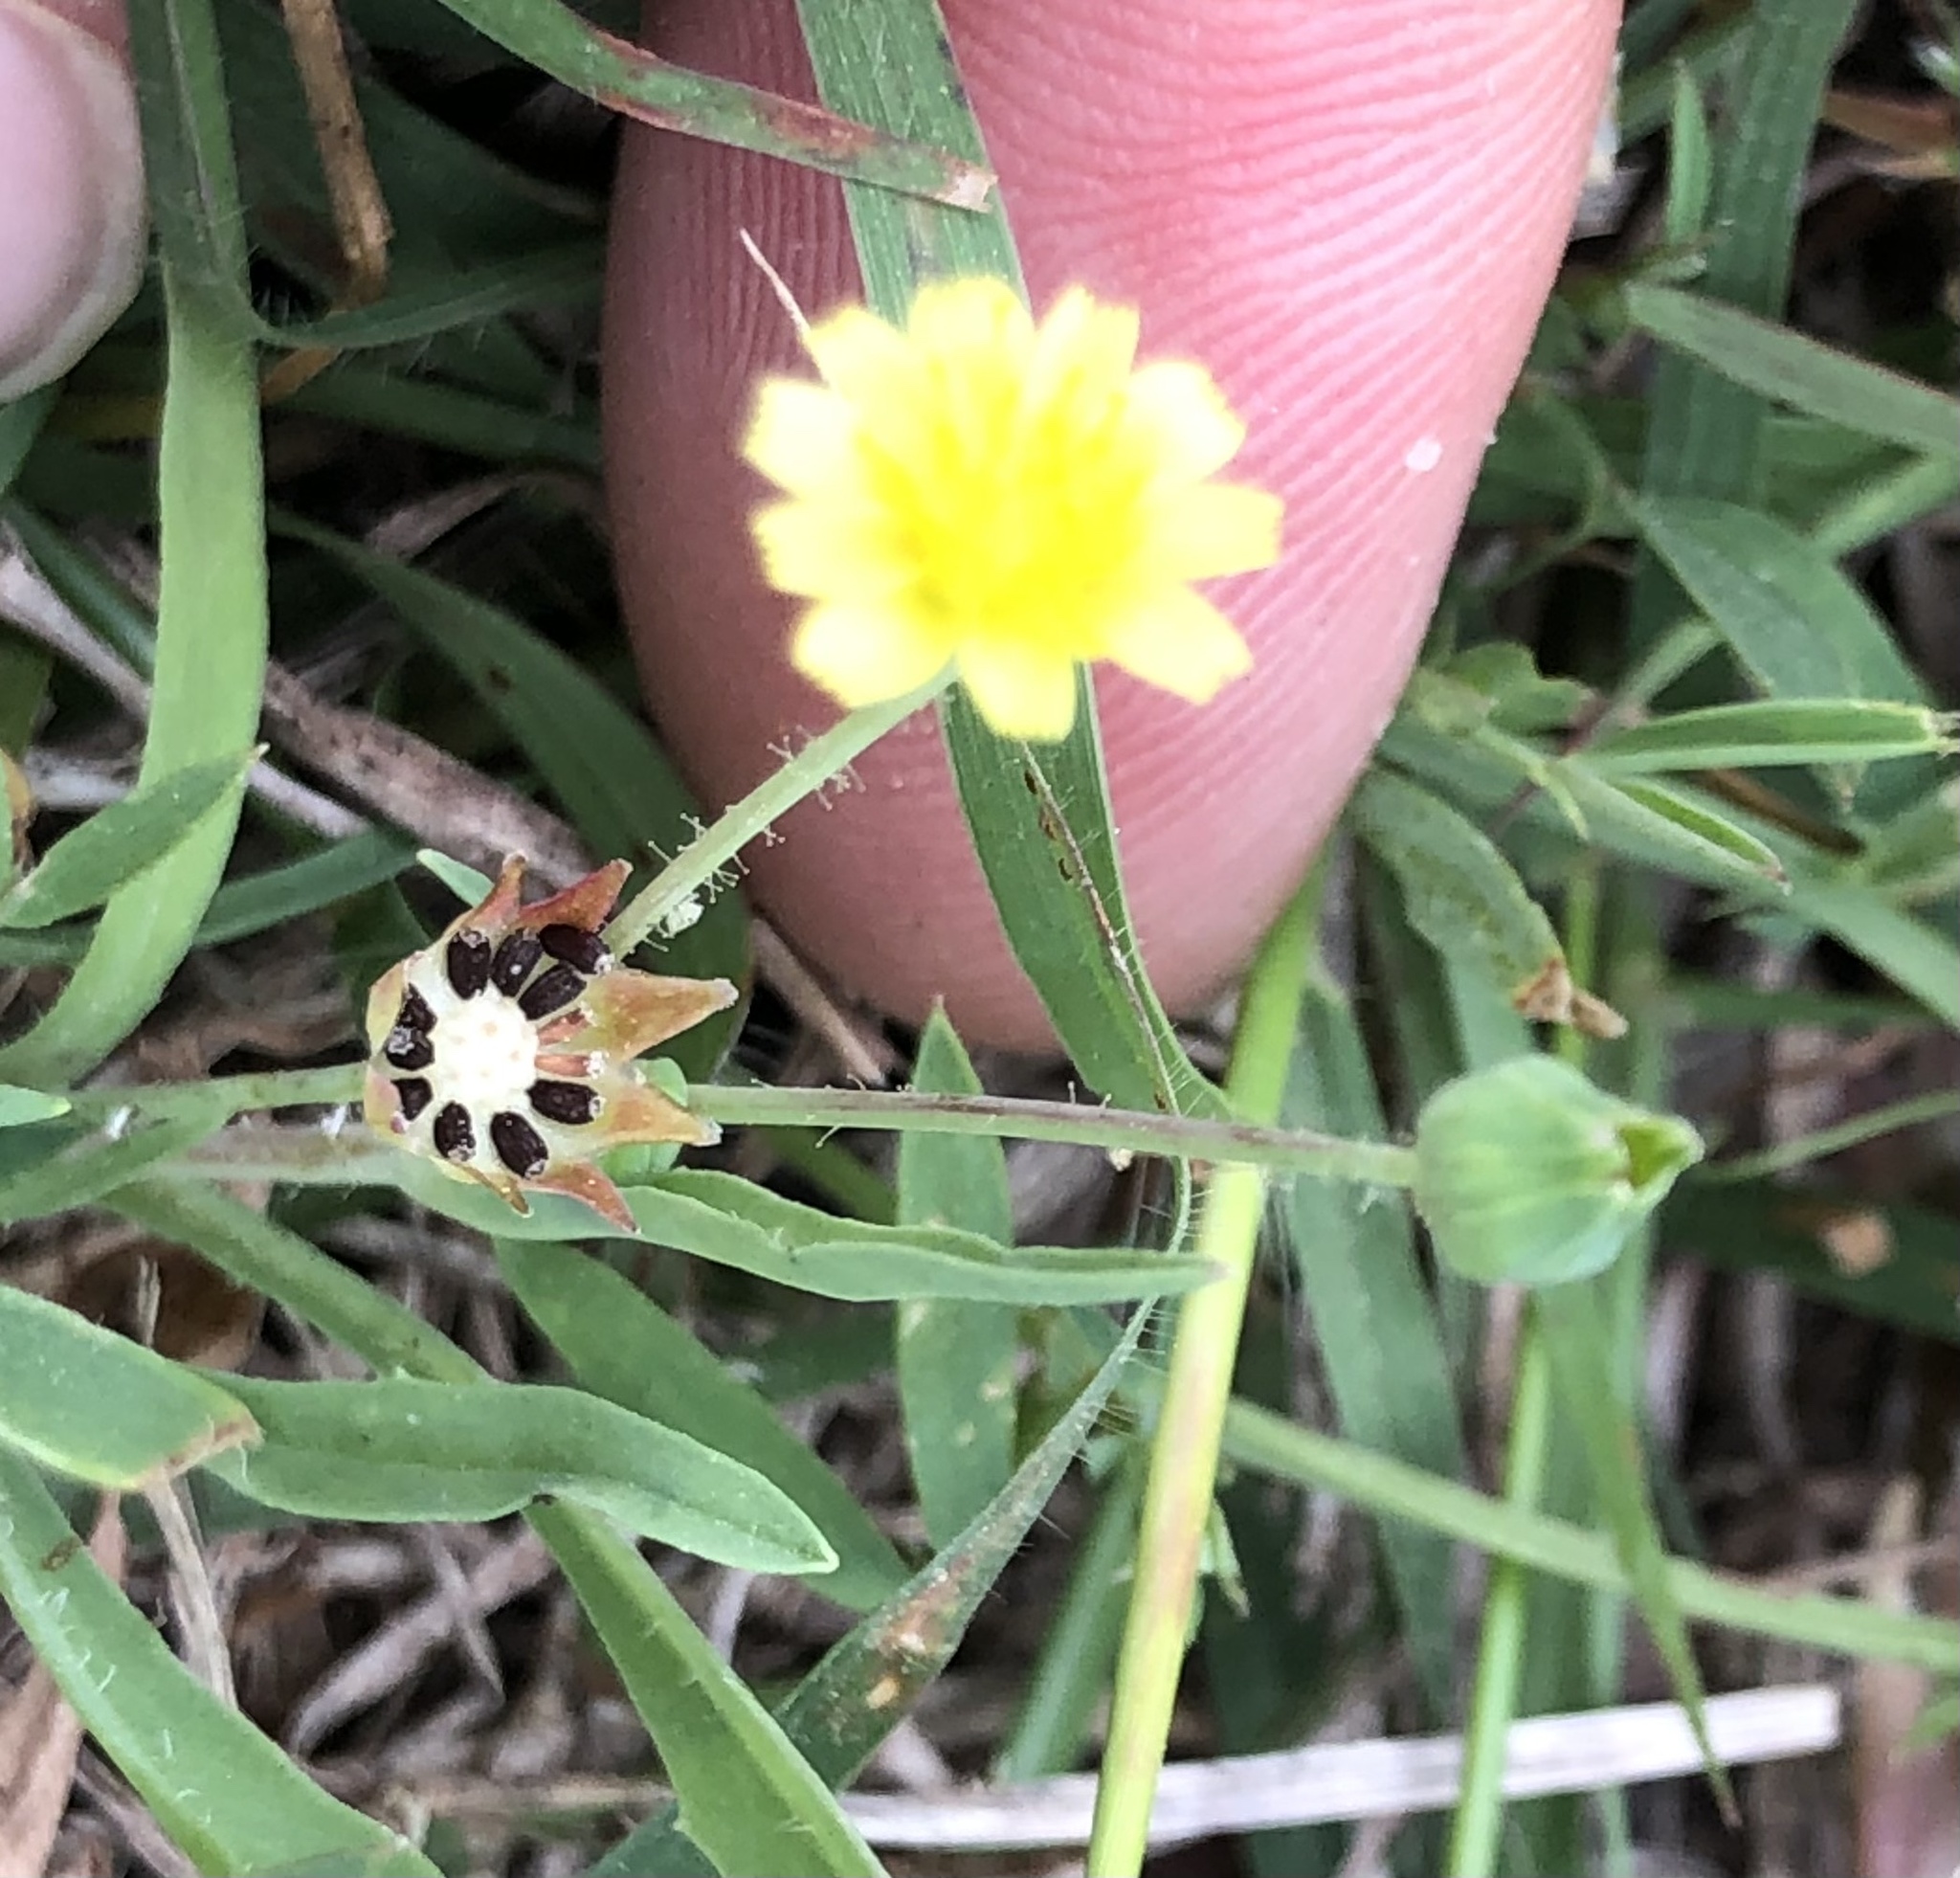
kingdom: Plantae
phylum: Tracheophyta
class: Magnoliopsida
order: Asterales
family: Asteraceae
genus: Krigia
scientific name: Krigia cespitosa
